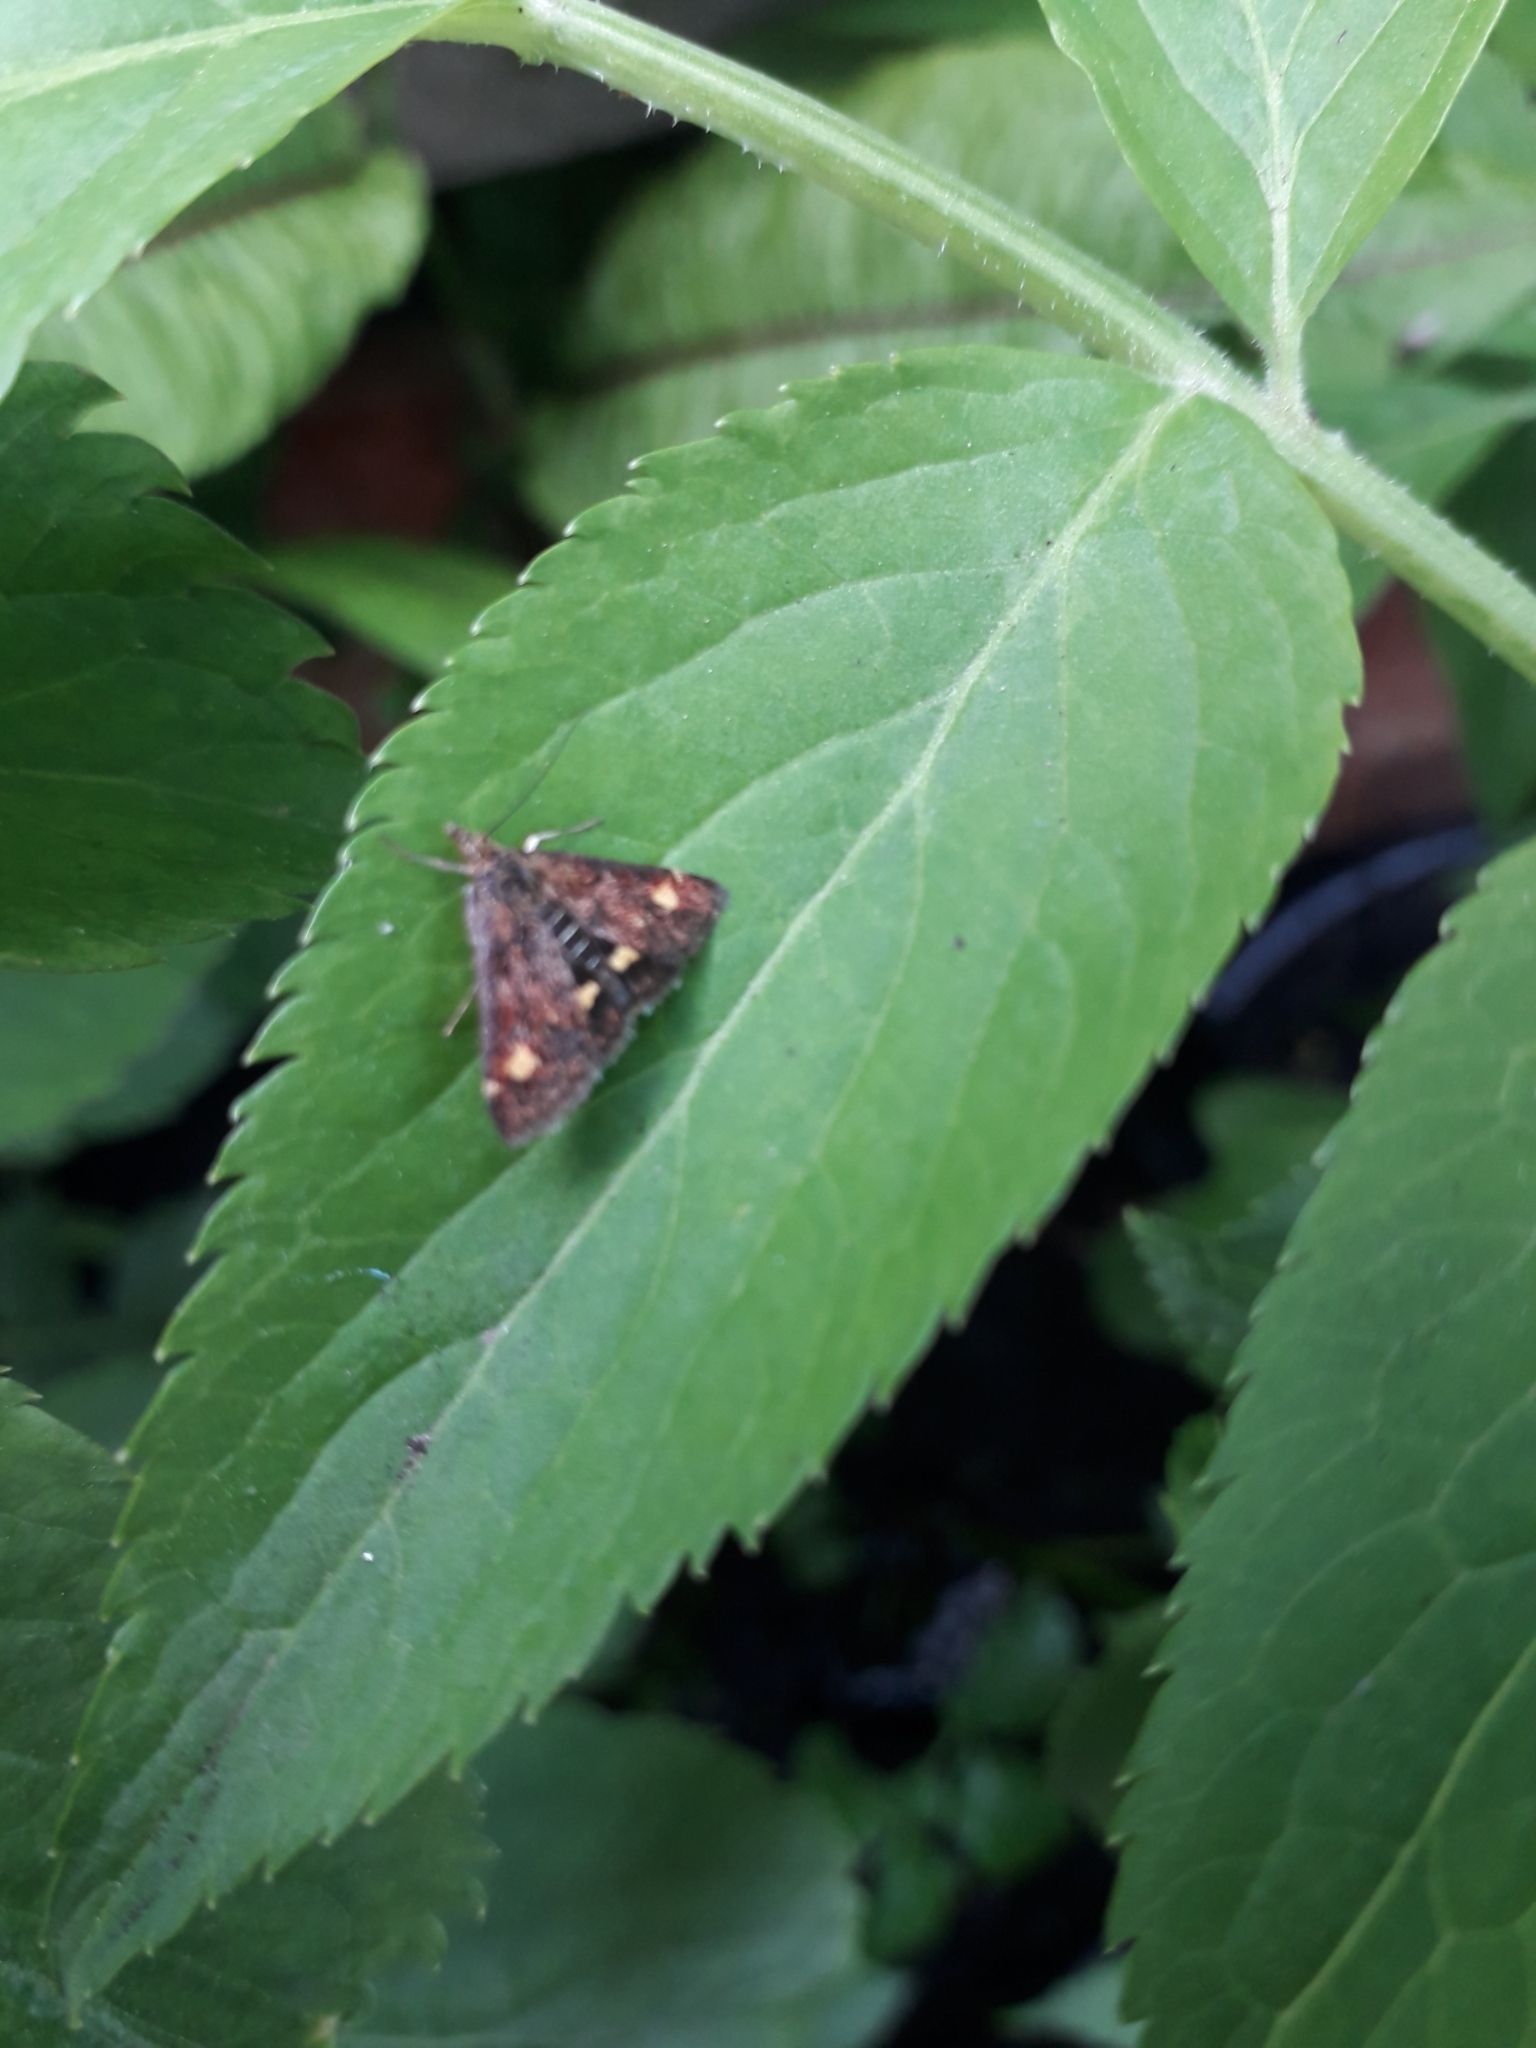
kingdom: Animalia
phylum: Arthropoda
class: Insecta
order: Lepidoptera
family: Crambidae
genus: Pyrausta
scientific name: Pyrausta aurata
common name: Small purple & gold
